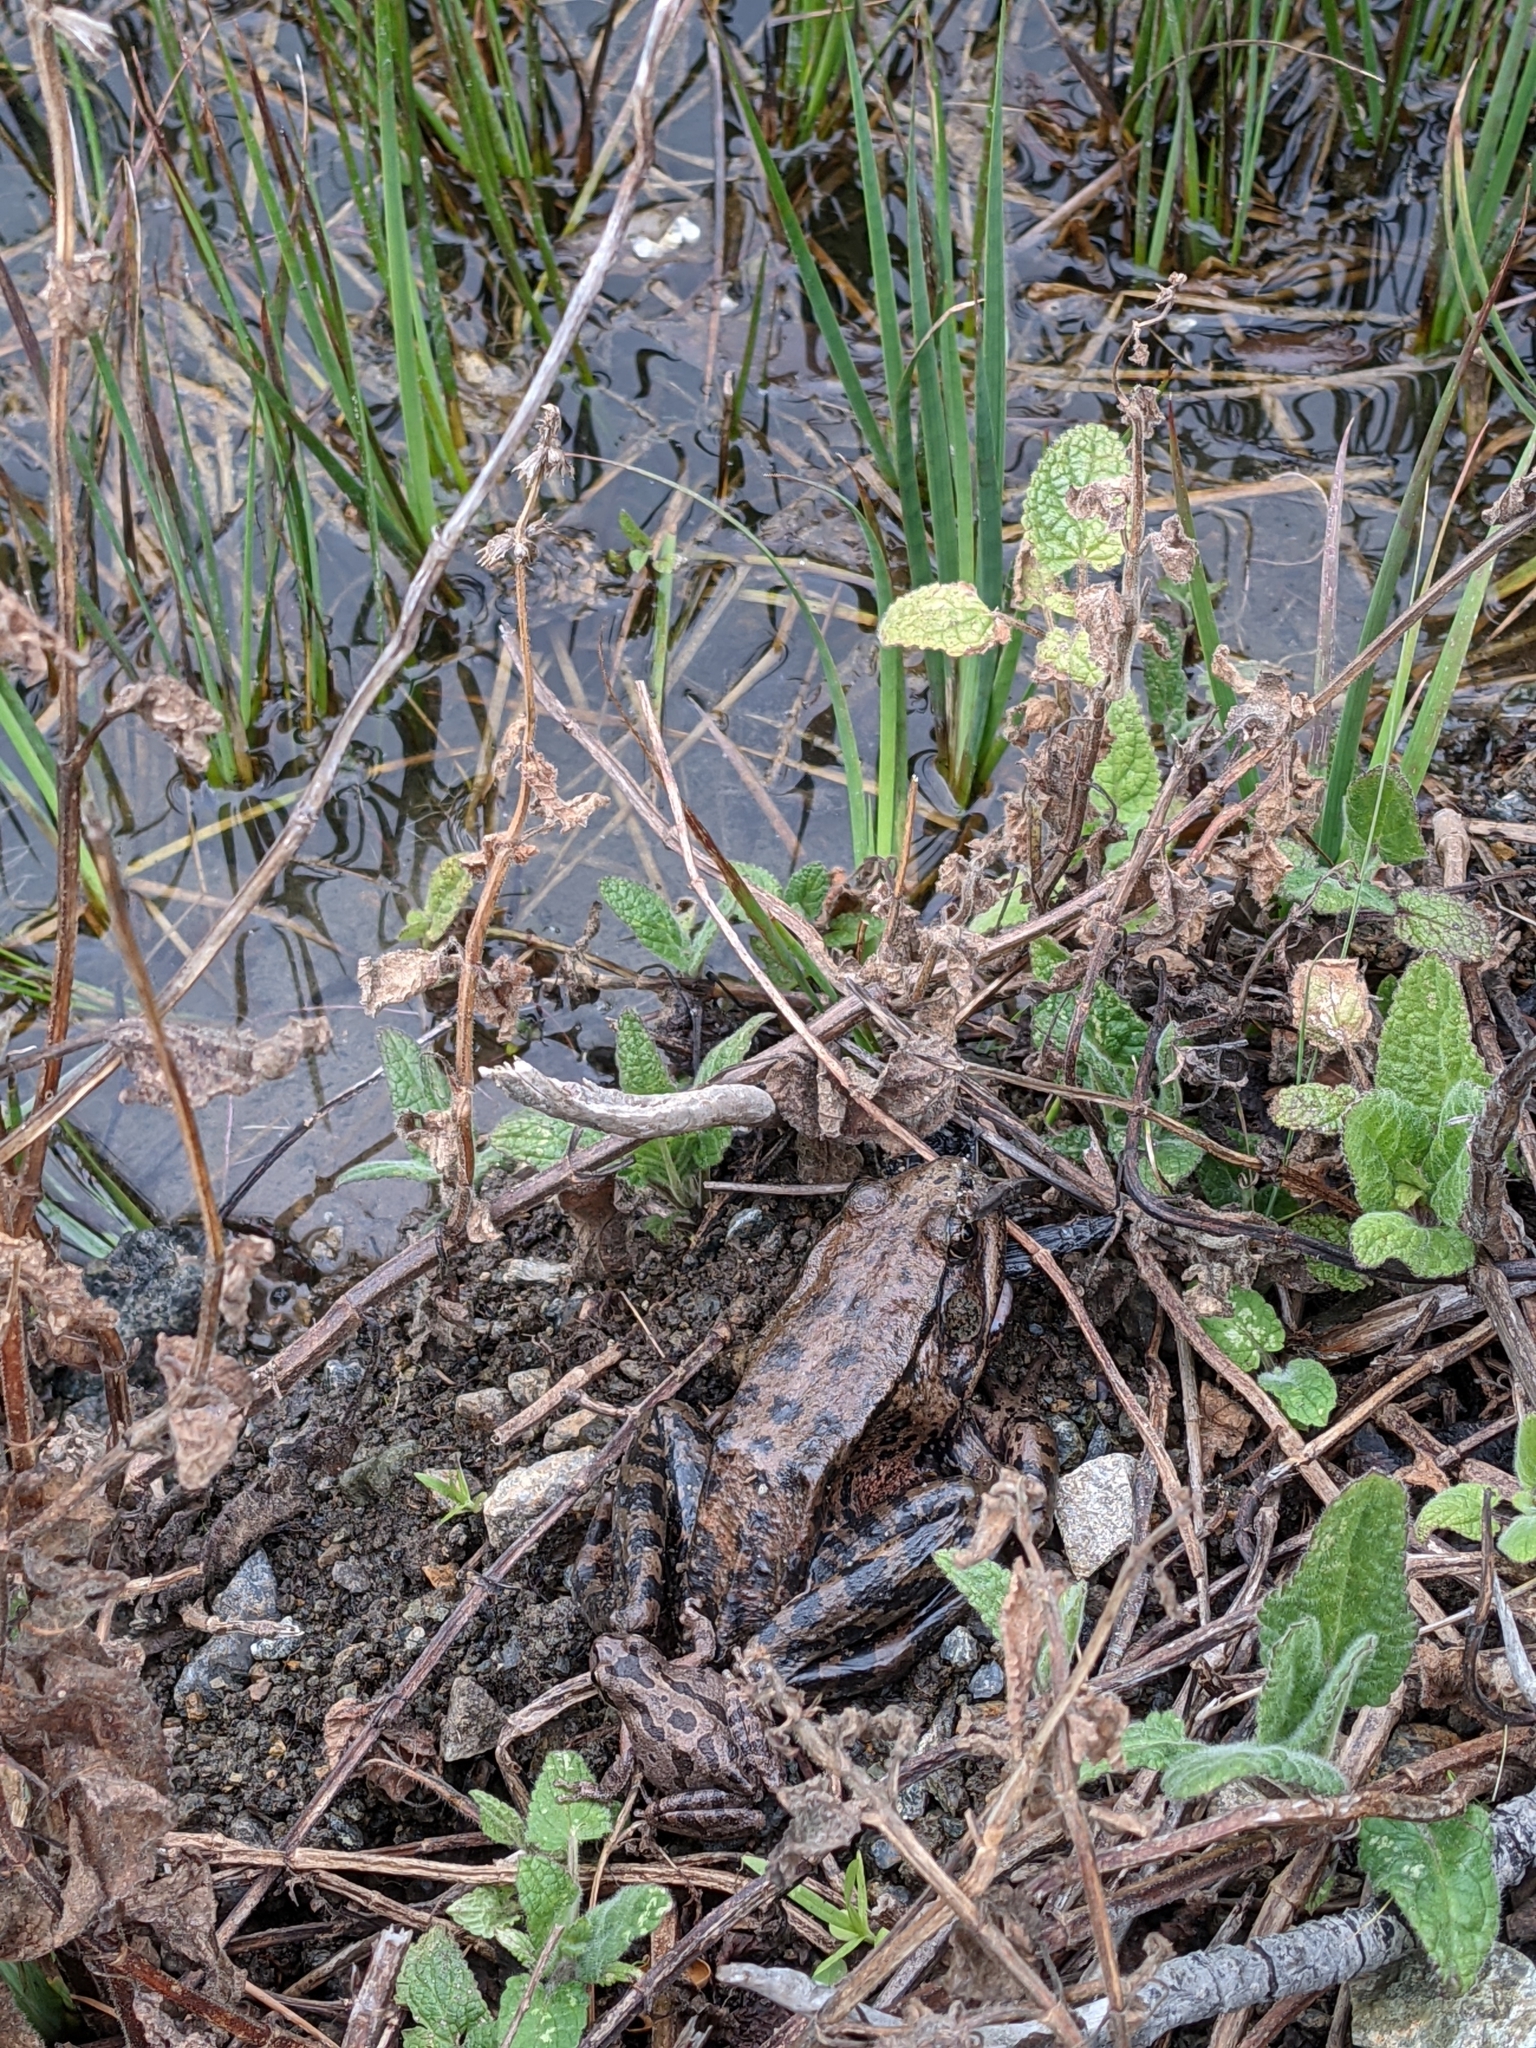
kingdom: Animalia
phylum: Chordata
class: Amphibia
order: Anura
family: Ranidae
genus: Rana
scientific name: Rana draytonii
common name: California red-legged frog
